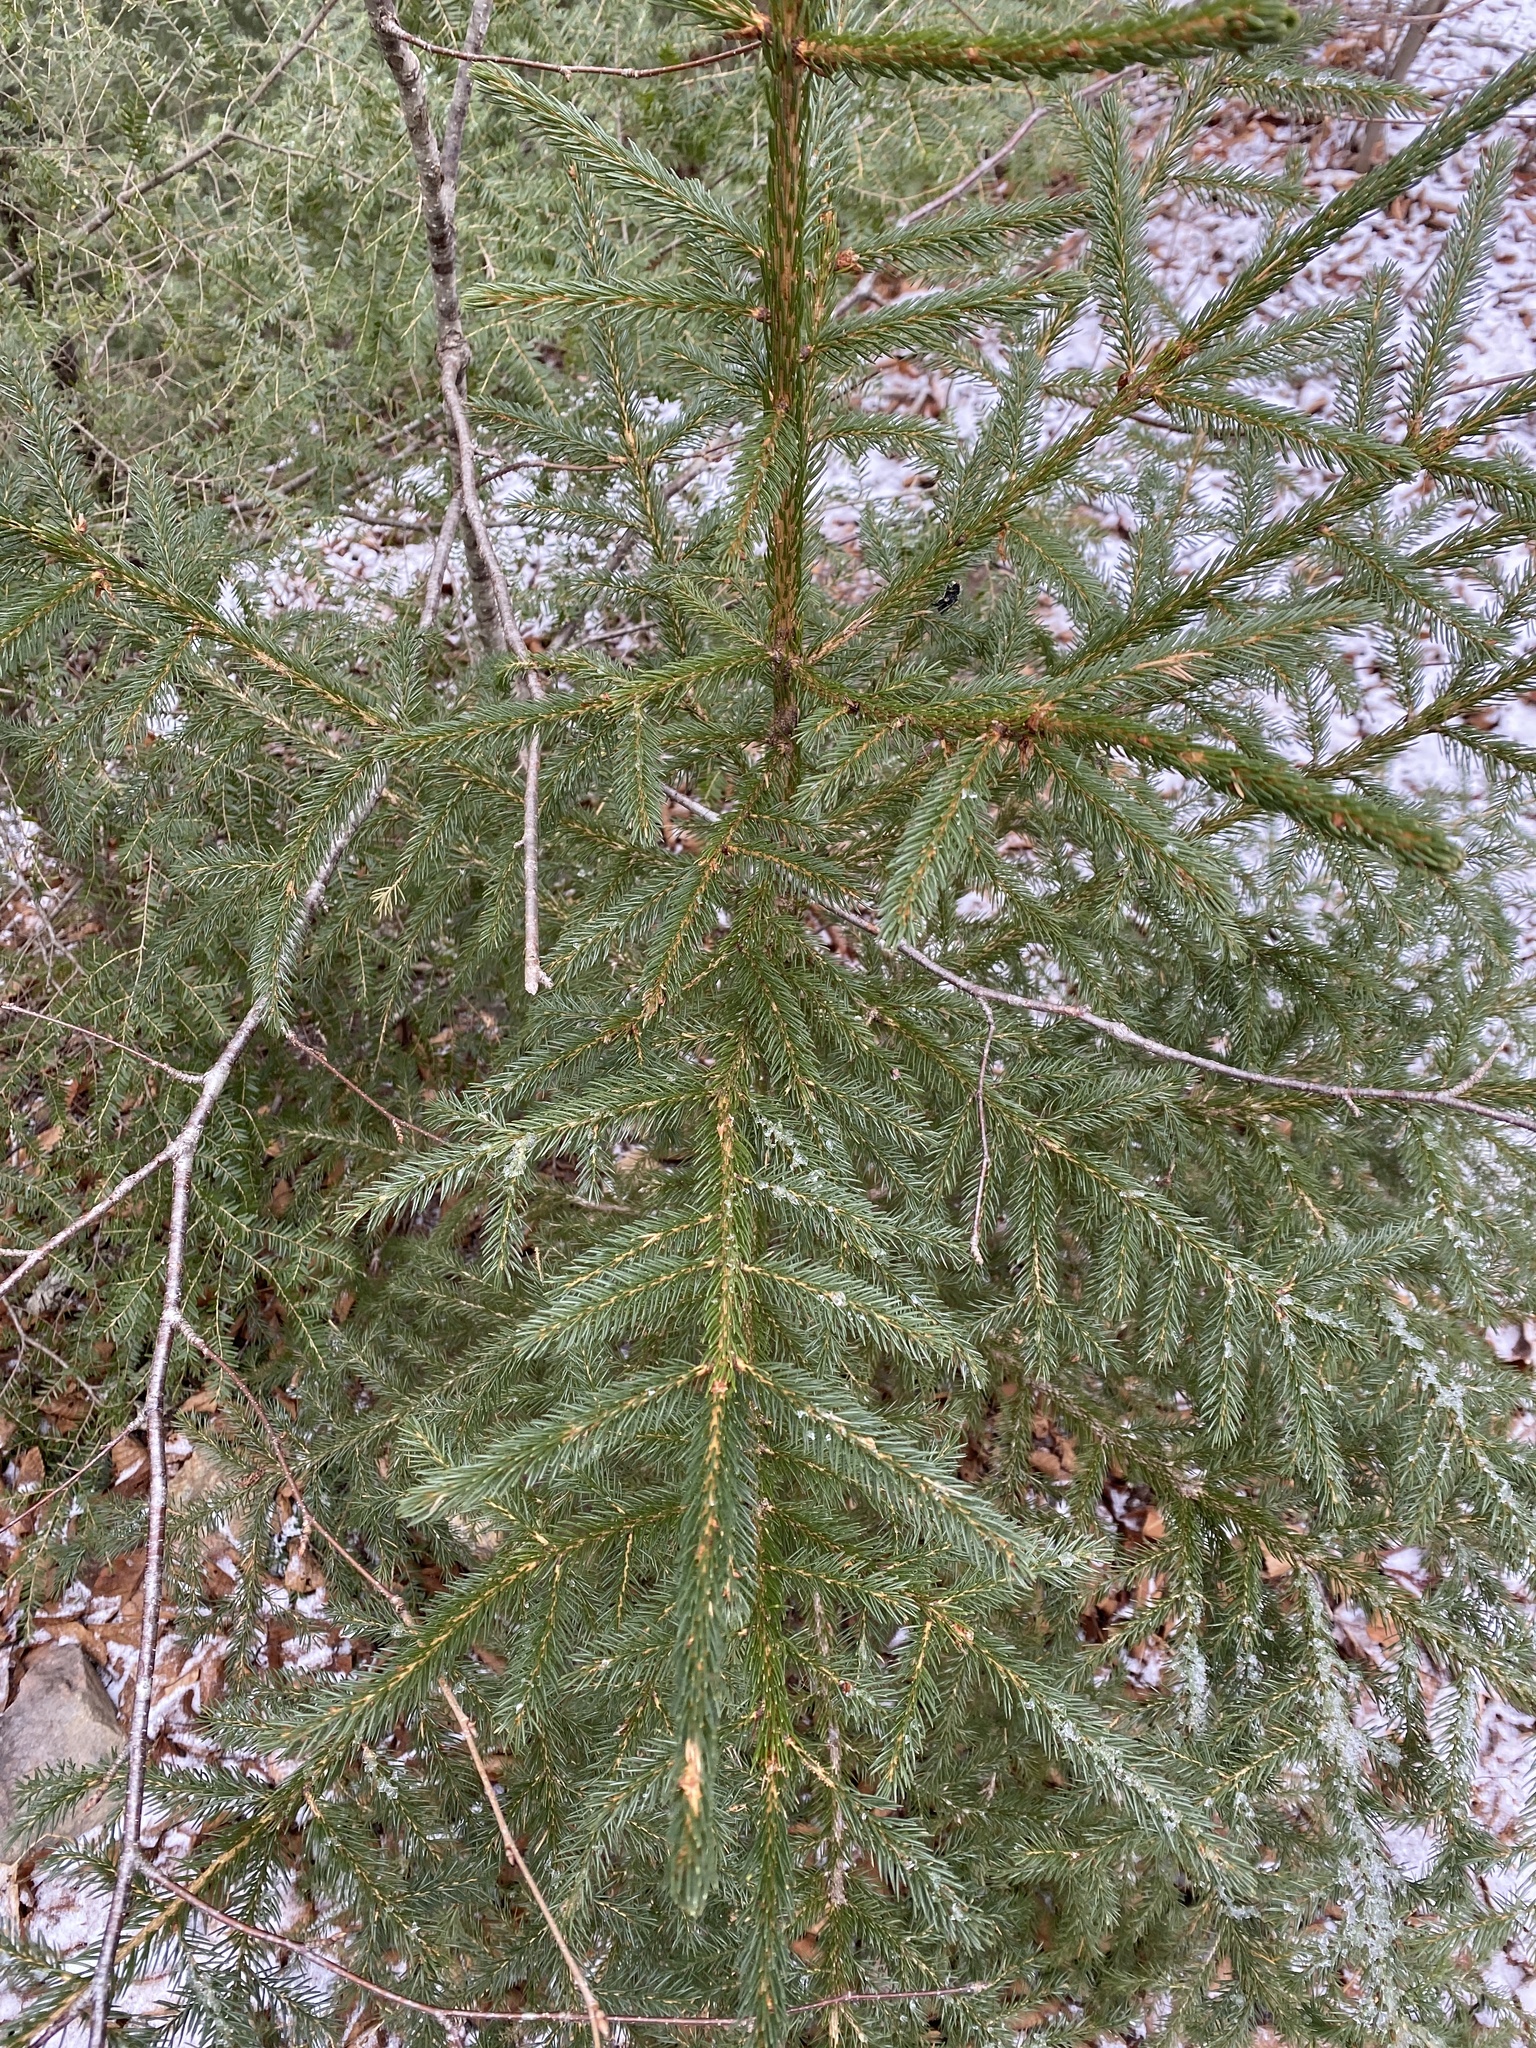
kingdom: Plantae
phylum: Tracheophyta
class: Pinopsida
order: Pinales
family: Pinaceae
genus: Picea
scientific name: Picea rubens
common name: Red spruce
